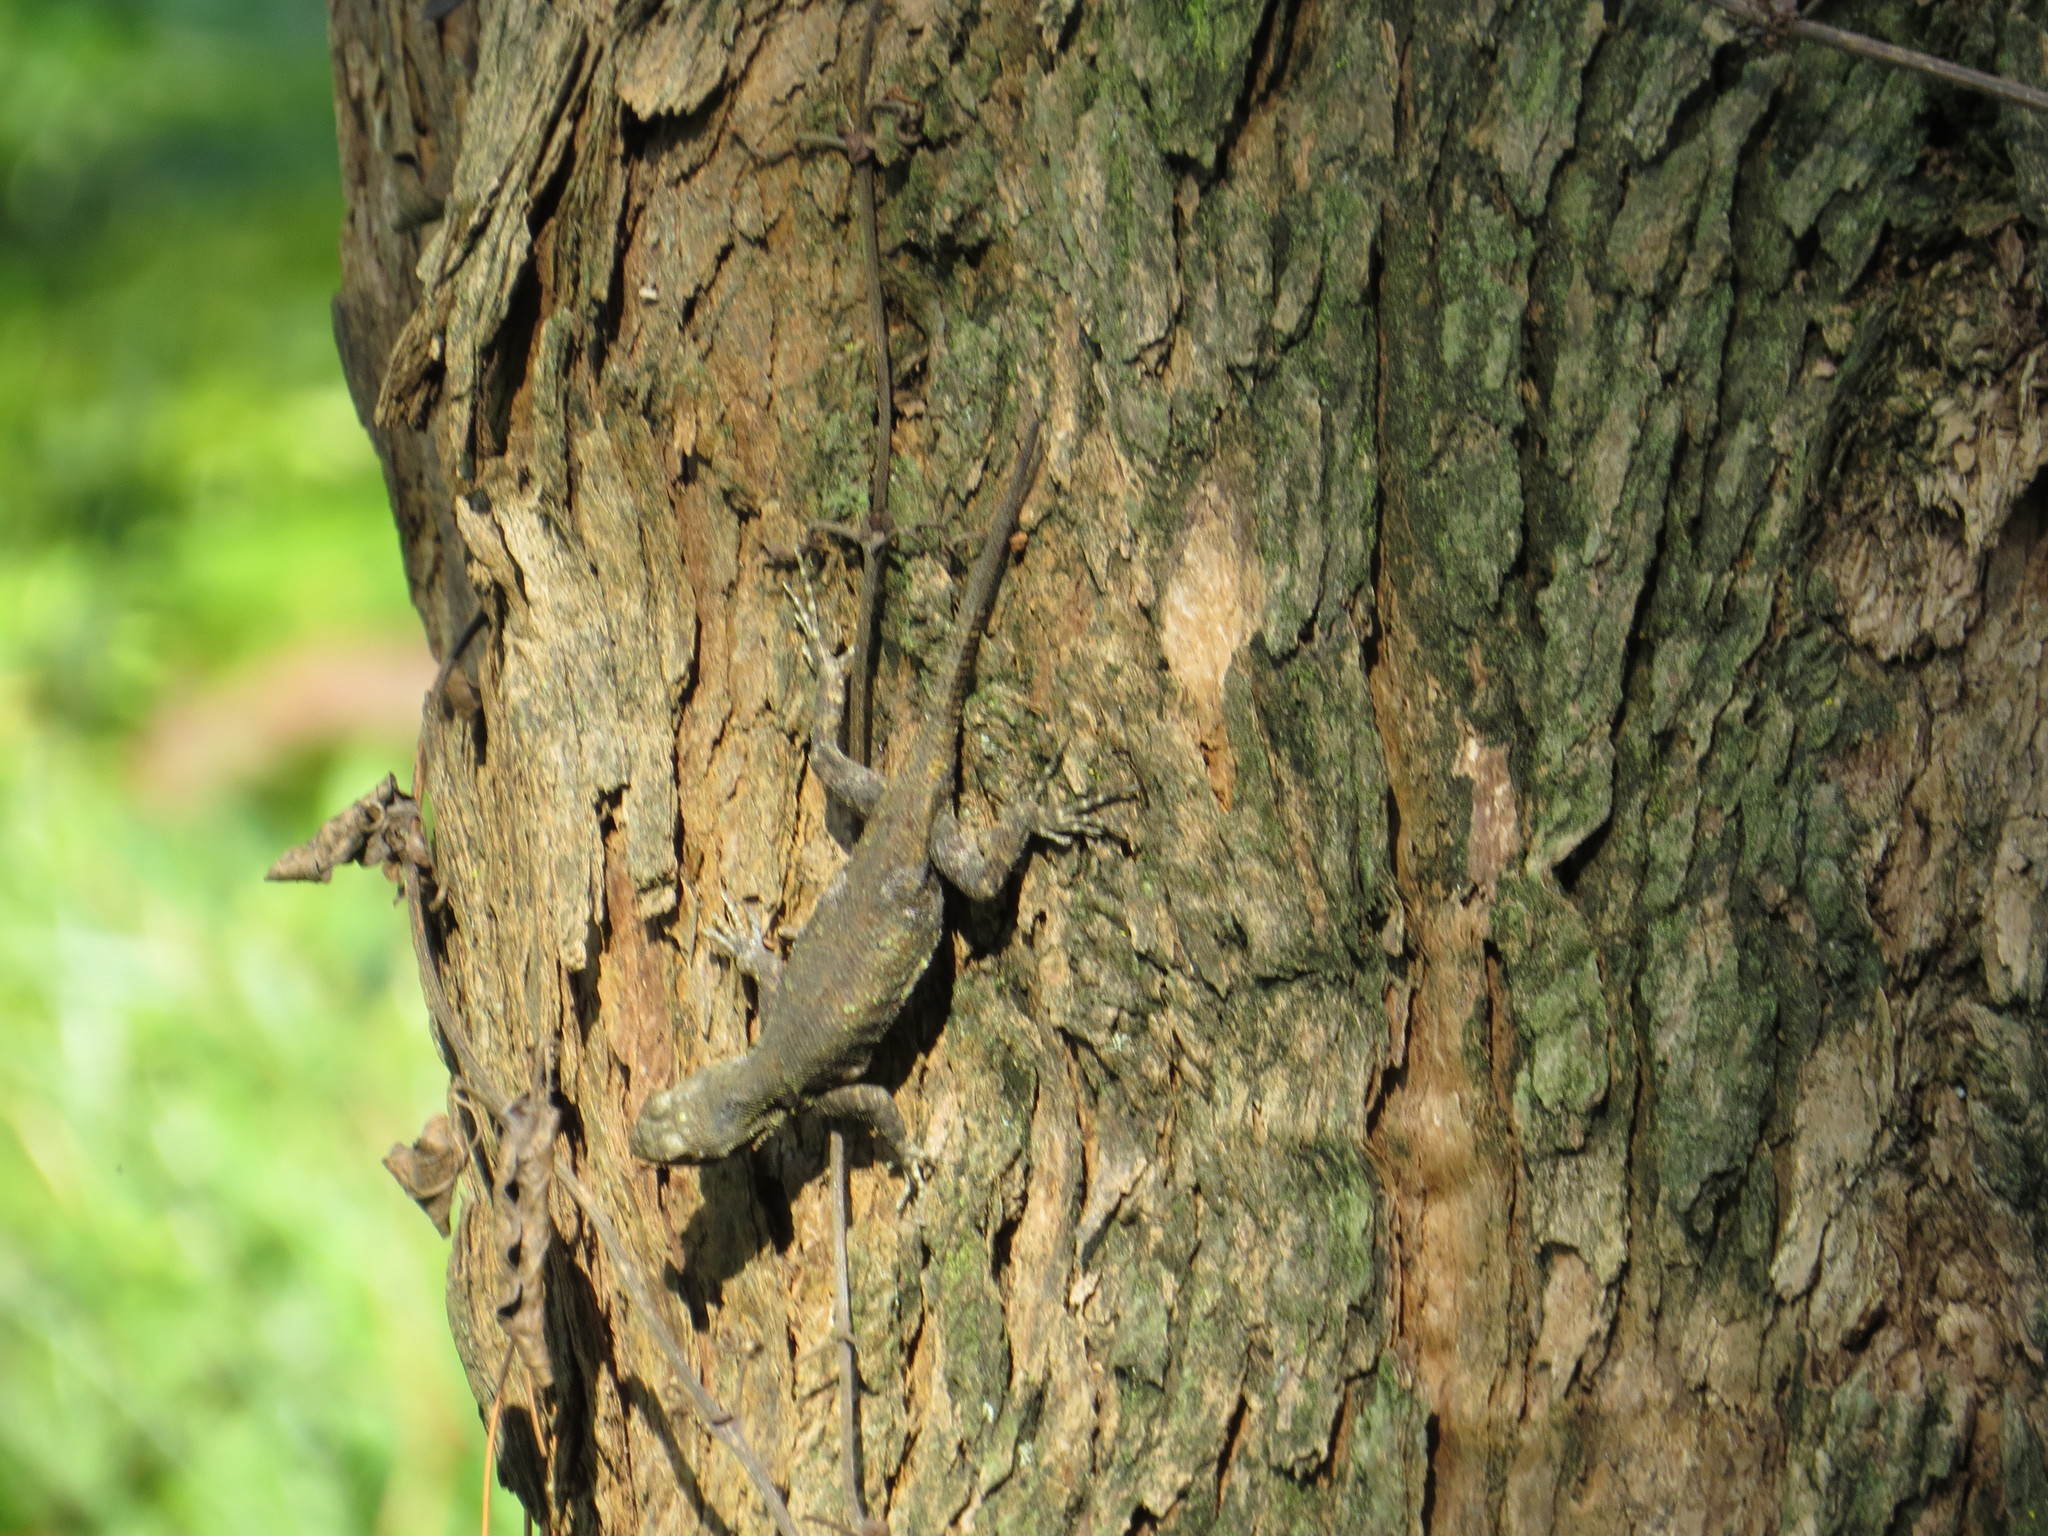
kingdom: Animalia
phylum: Chordata
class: Squamata
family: Phrynosomatidae
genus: Sceloporus
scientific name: Sceloporus grammicus
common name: Mesquite lizard
